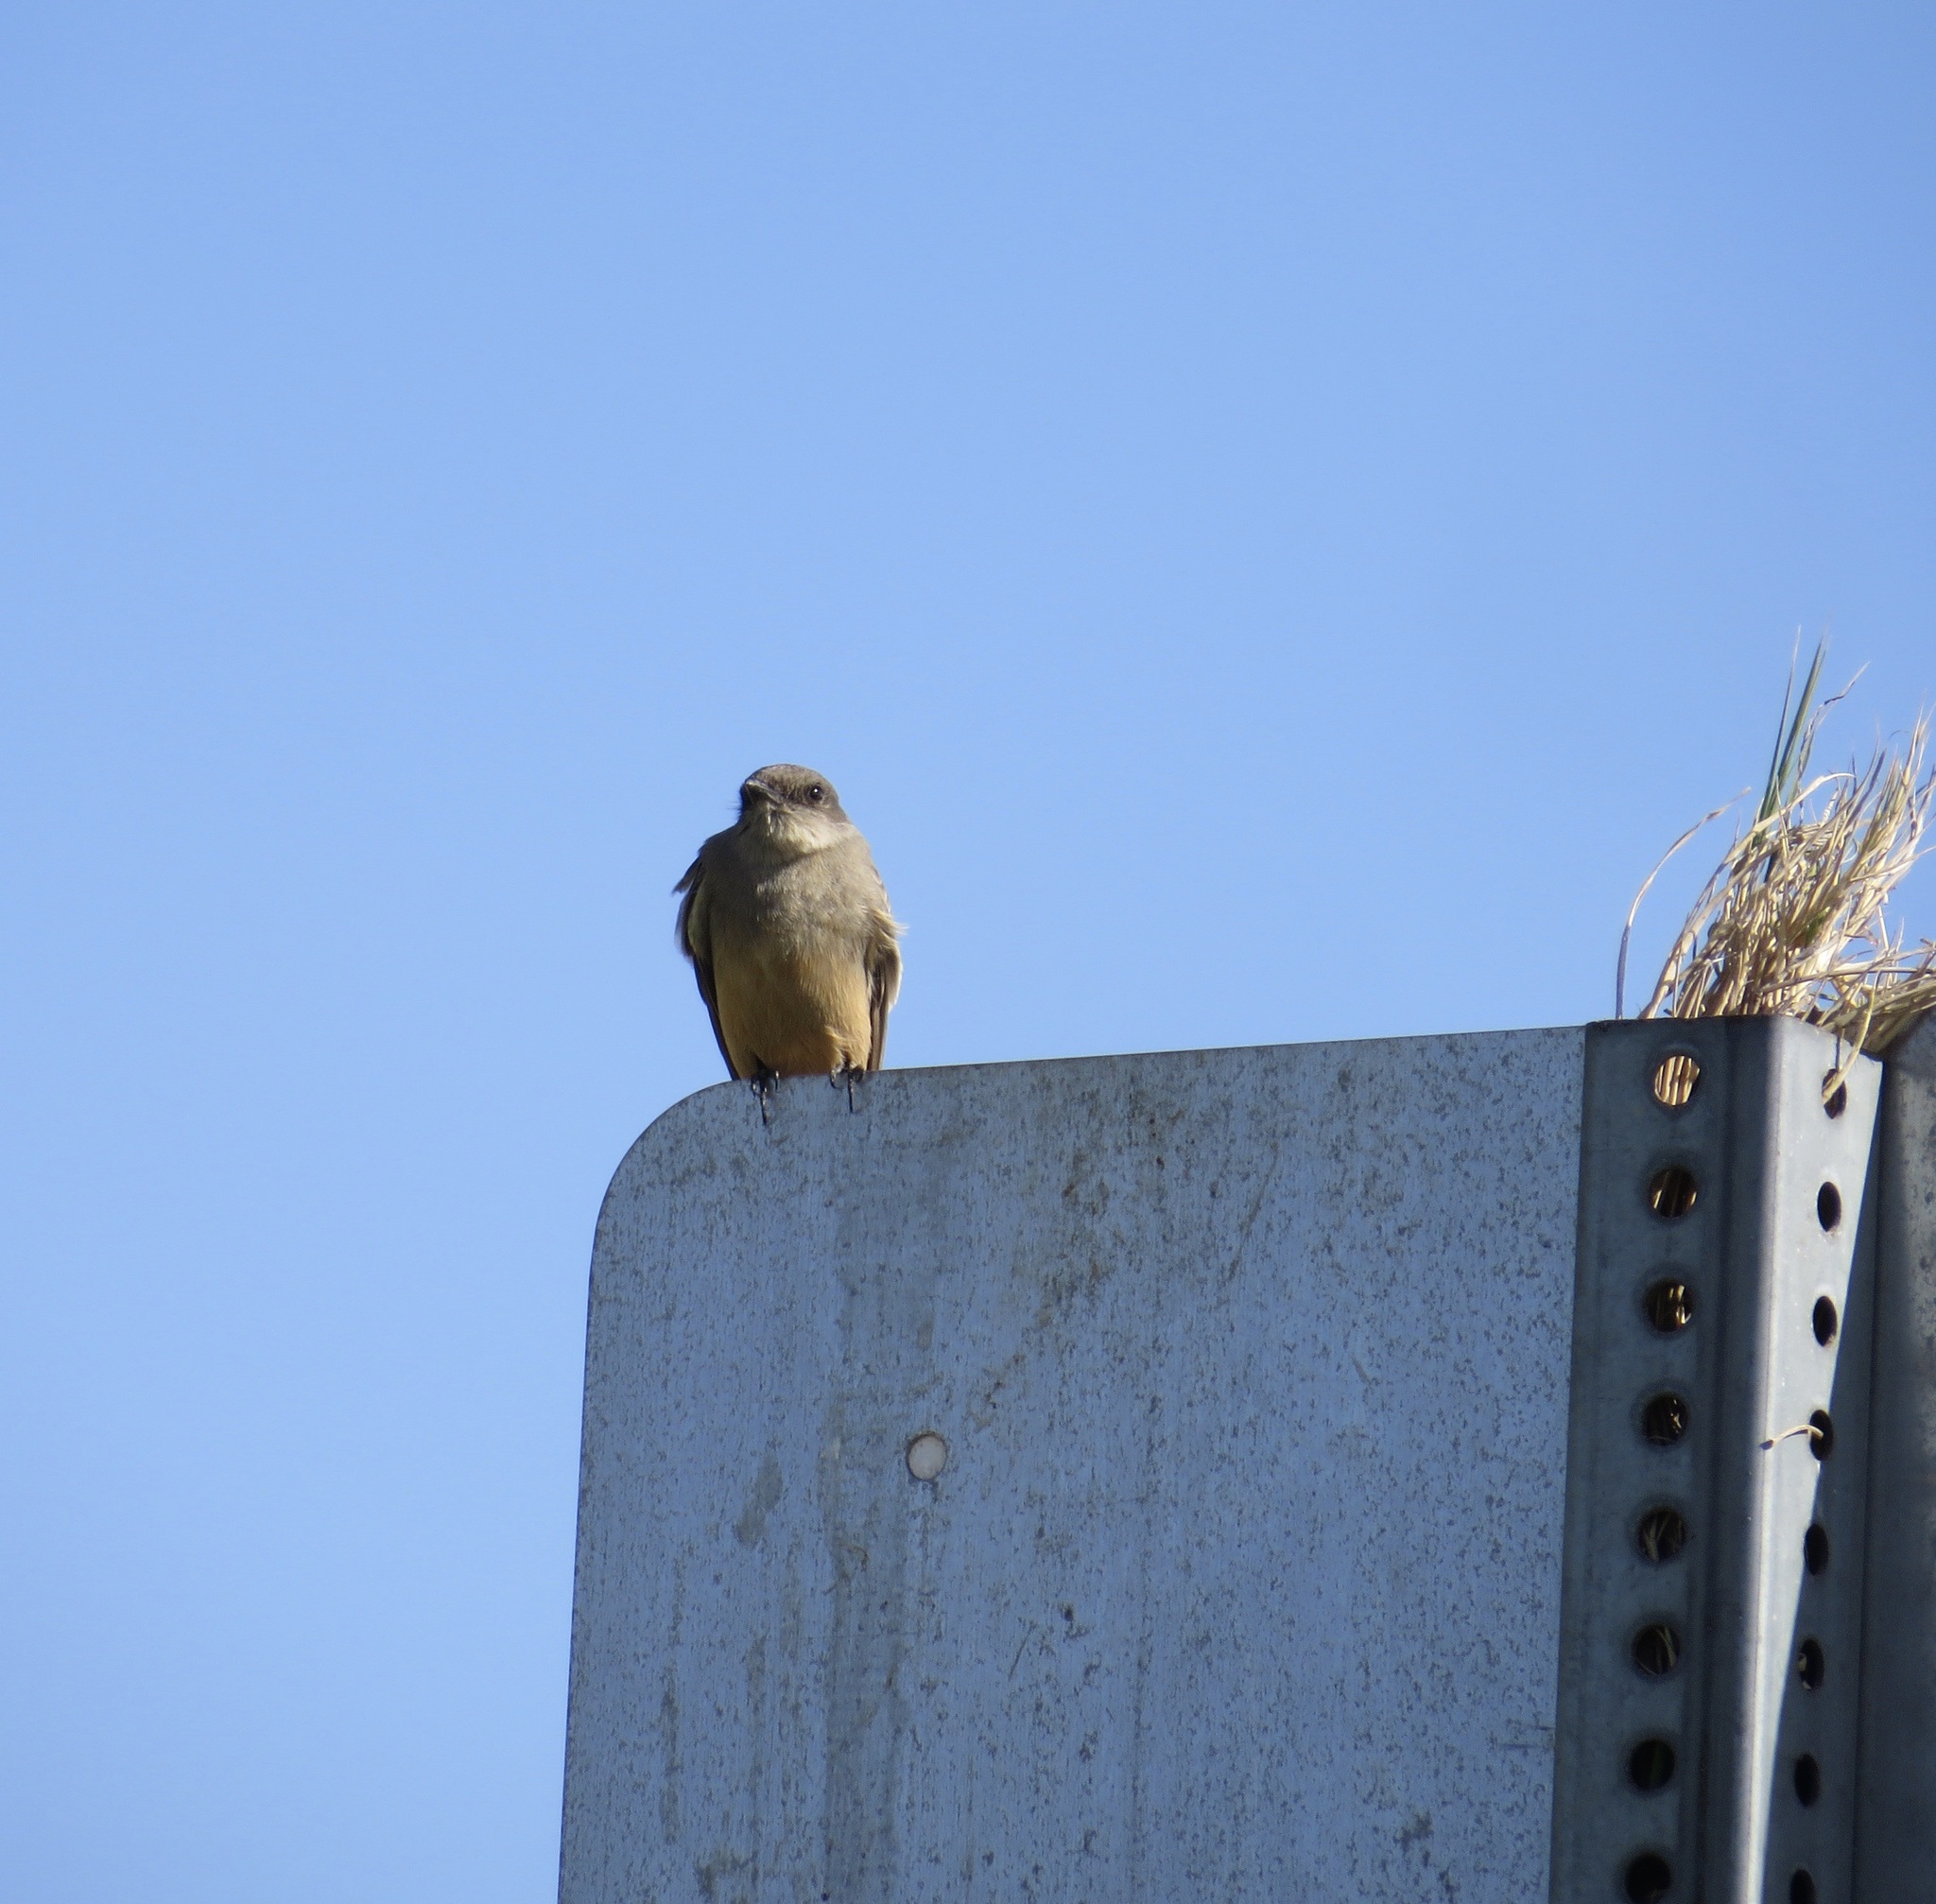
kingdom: Animalia
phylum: Chordata
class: Aves
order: Passeriformes
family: Tyrannidae
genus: Sayornis
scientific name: Sayornis saya
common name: Say's phoebe
